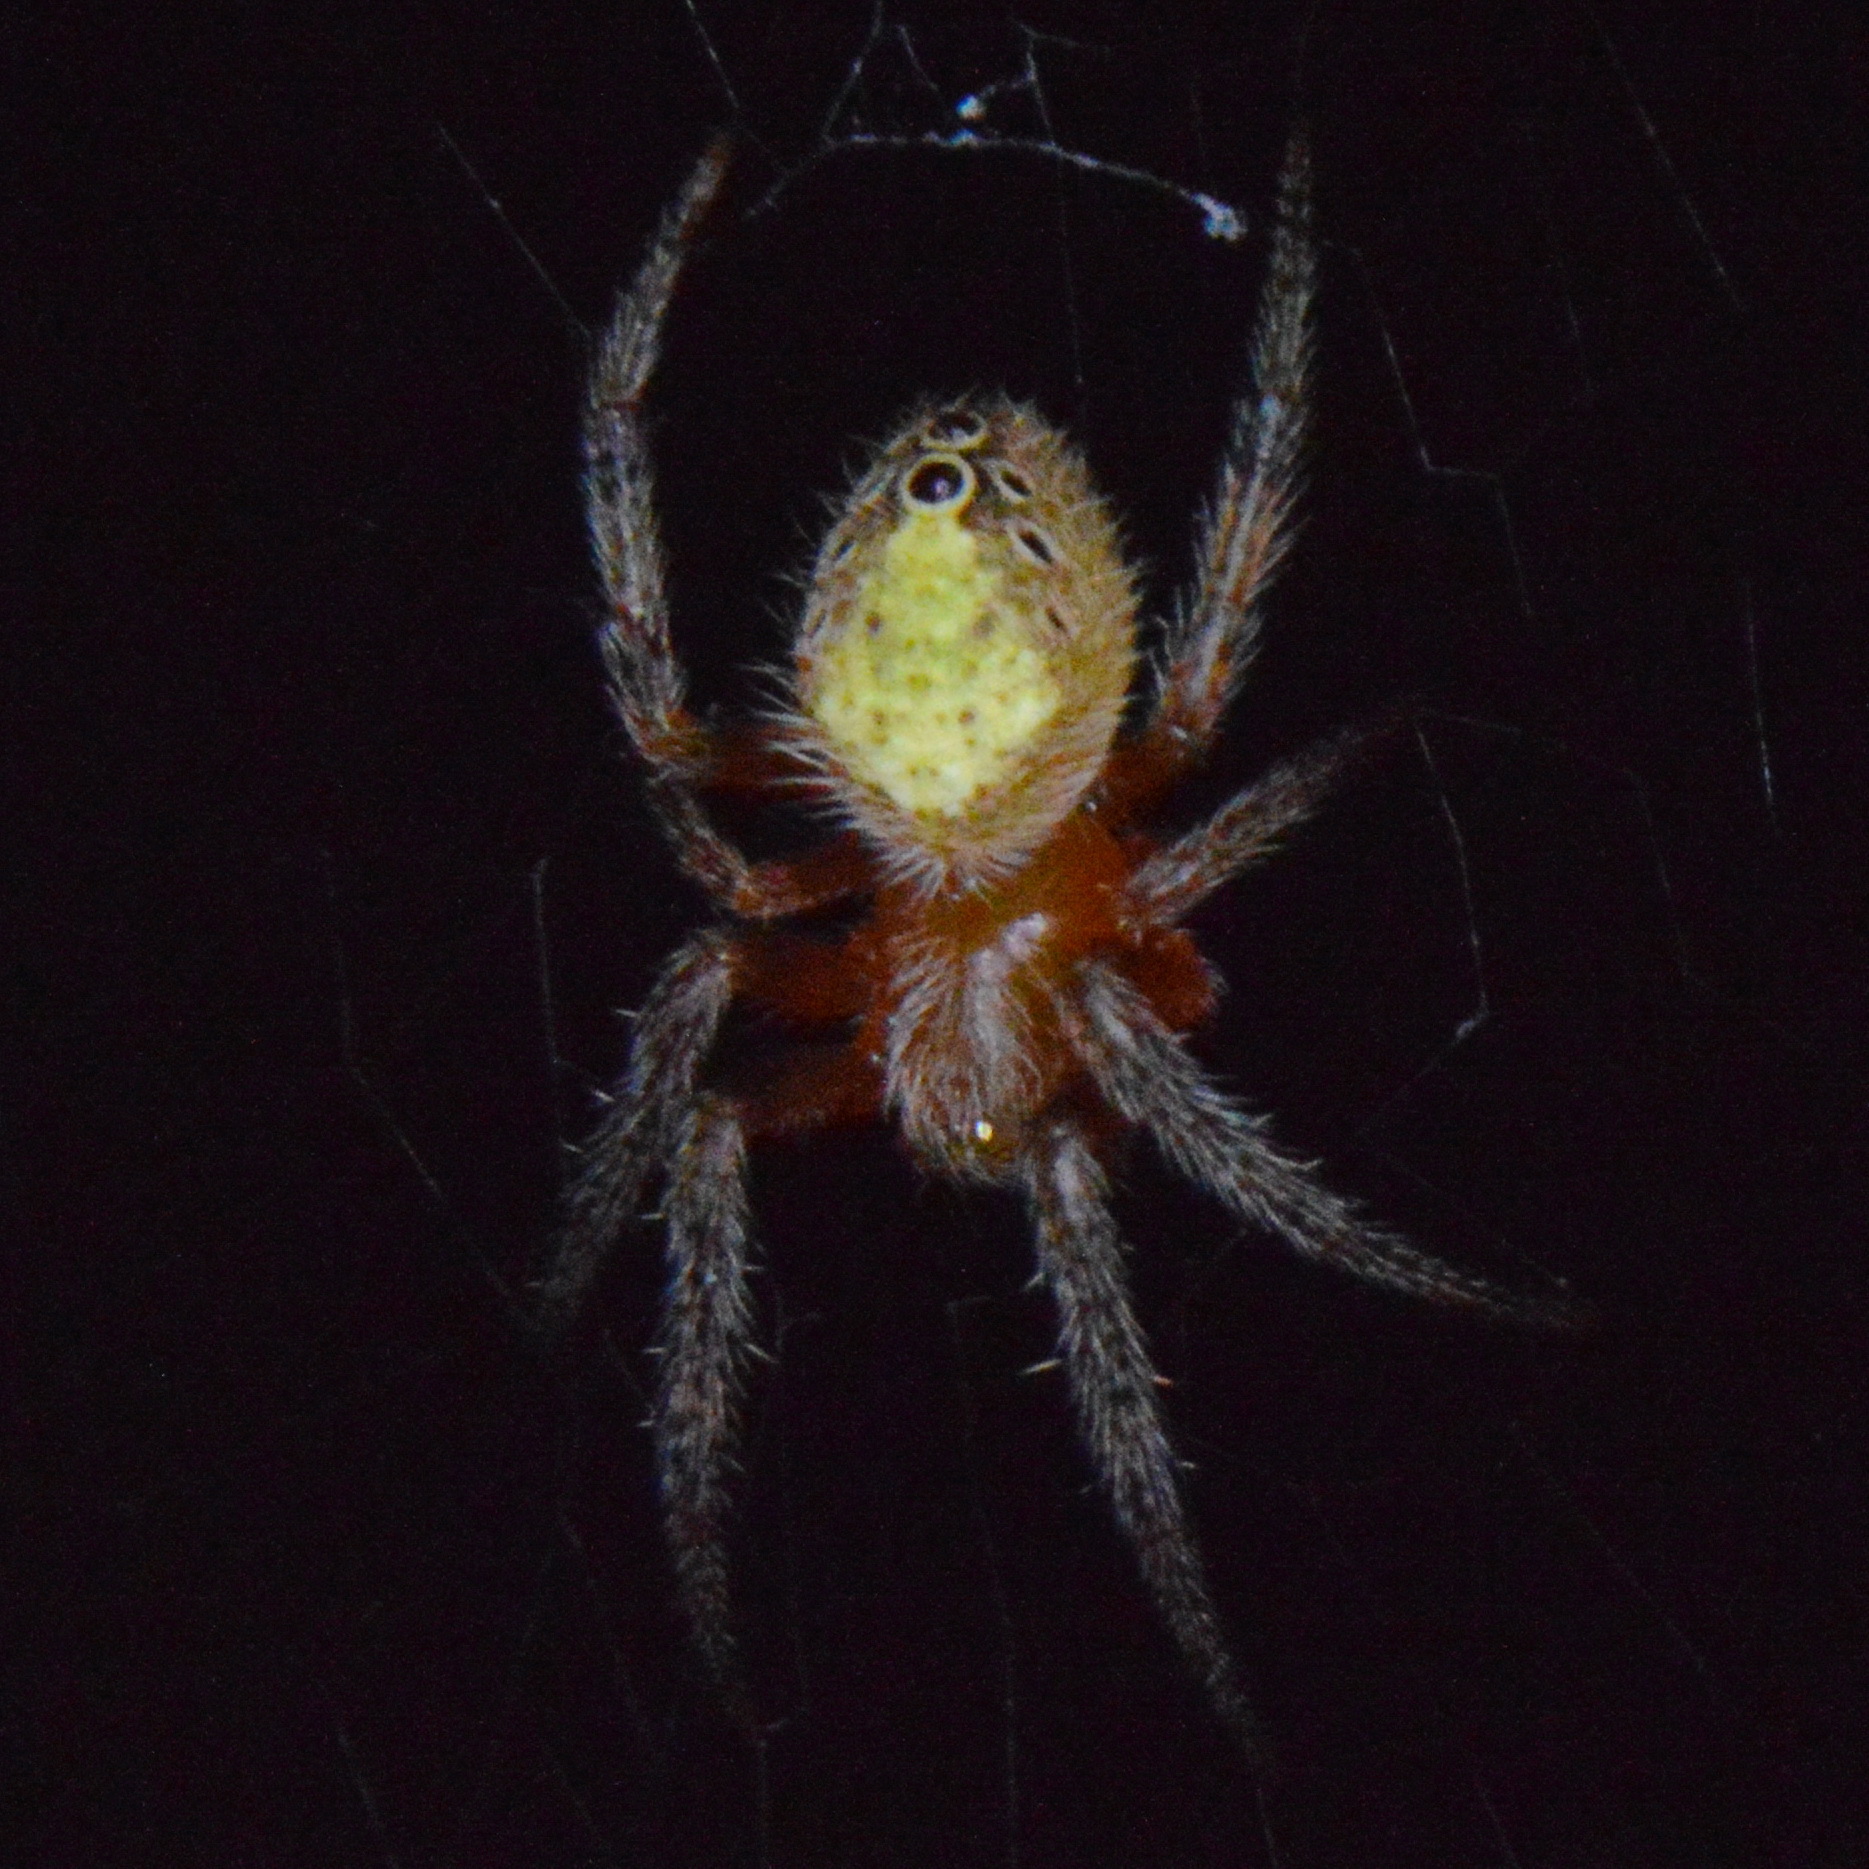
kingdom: Animalia
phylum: Arthropoda
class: Arachnida
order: Araneae
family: Araneidae
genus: Eriophora
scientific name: Eriophora ravilla
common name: Orb weavers
